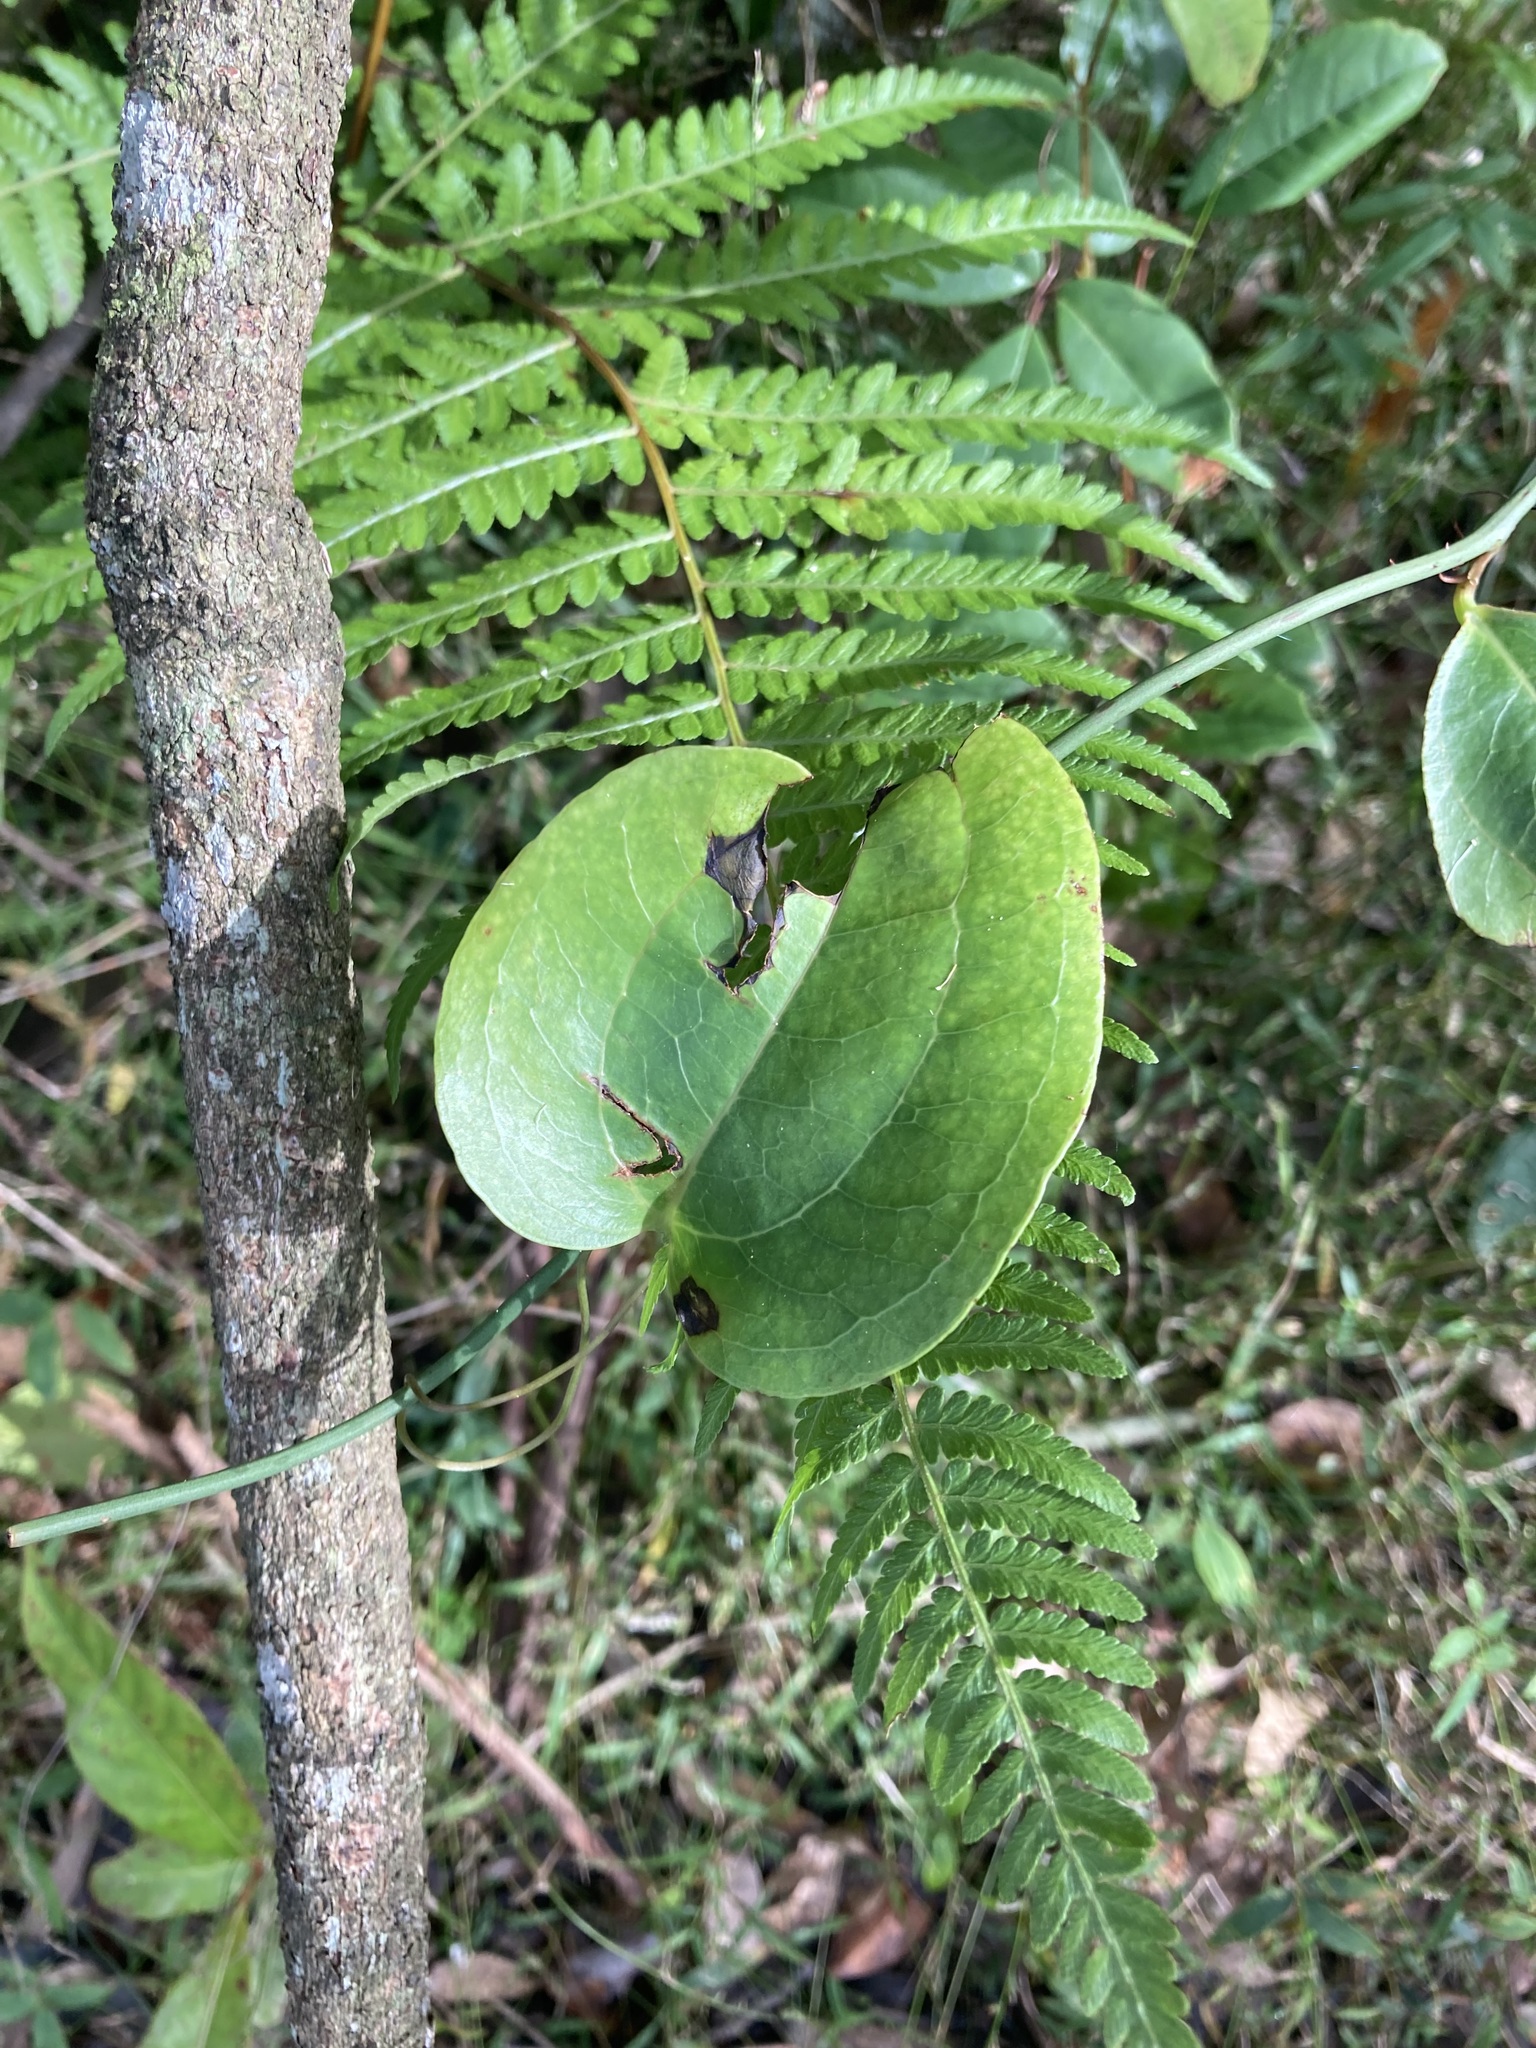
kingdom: Plantae
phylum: Tracheophyta
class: Liliopsida
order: Liliales
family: Smilacaceae
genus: Smilax
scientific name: Smilax australis
